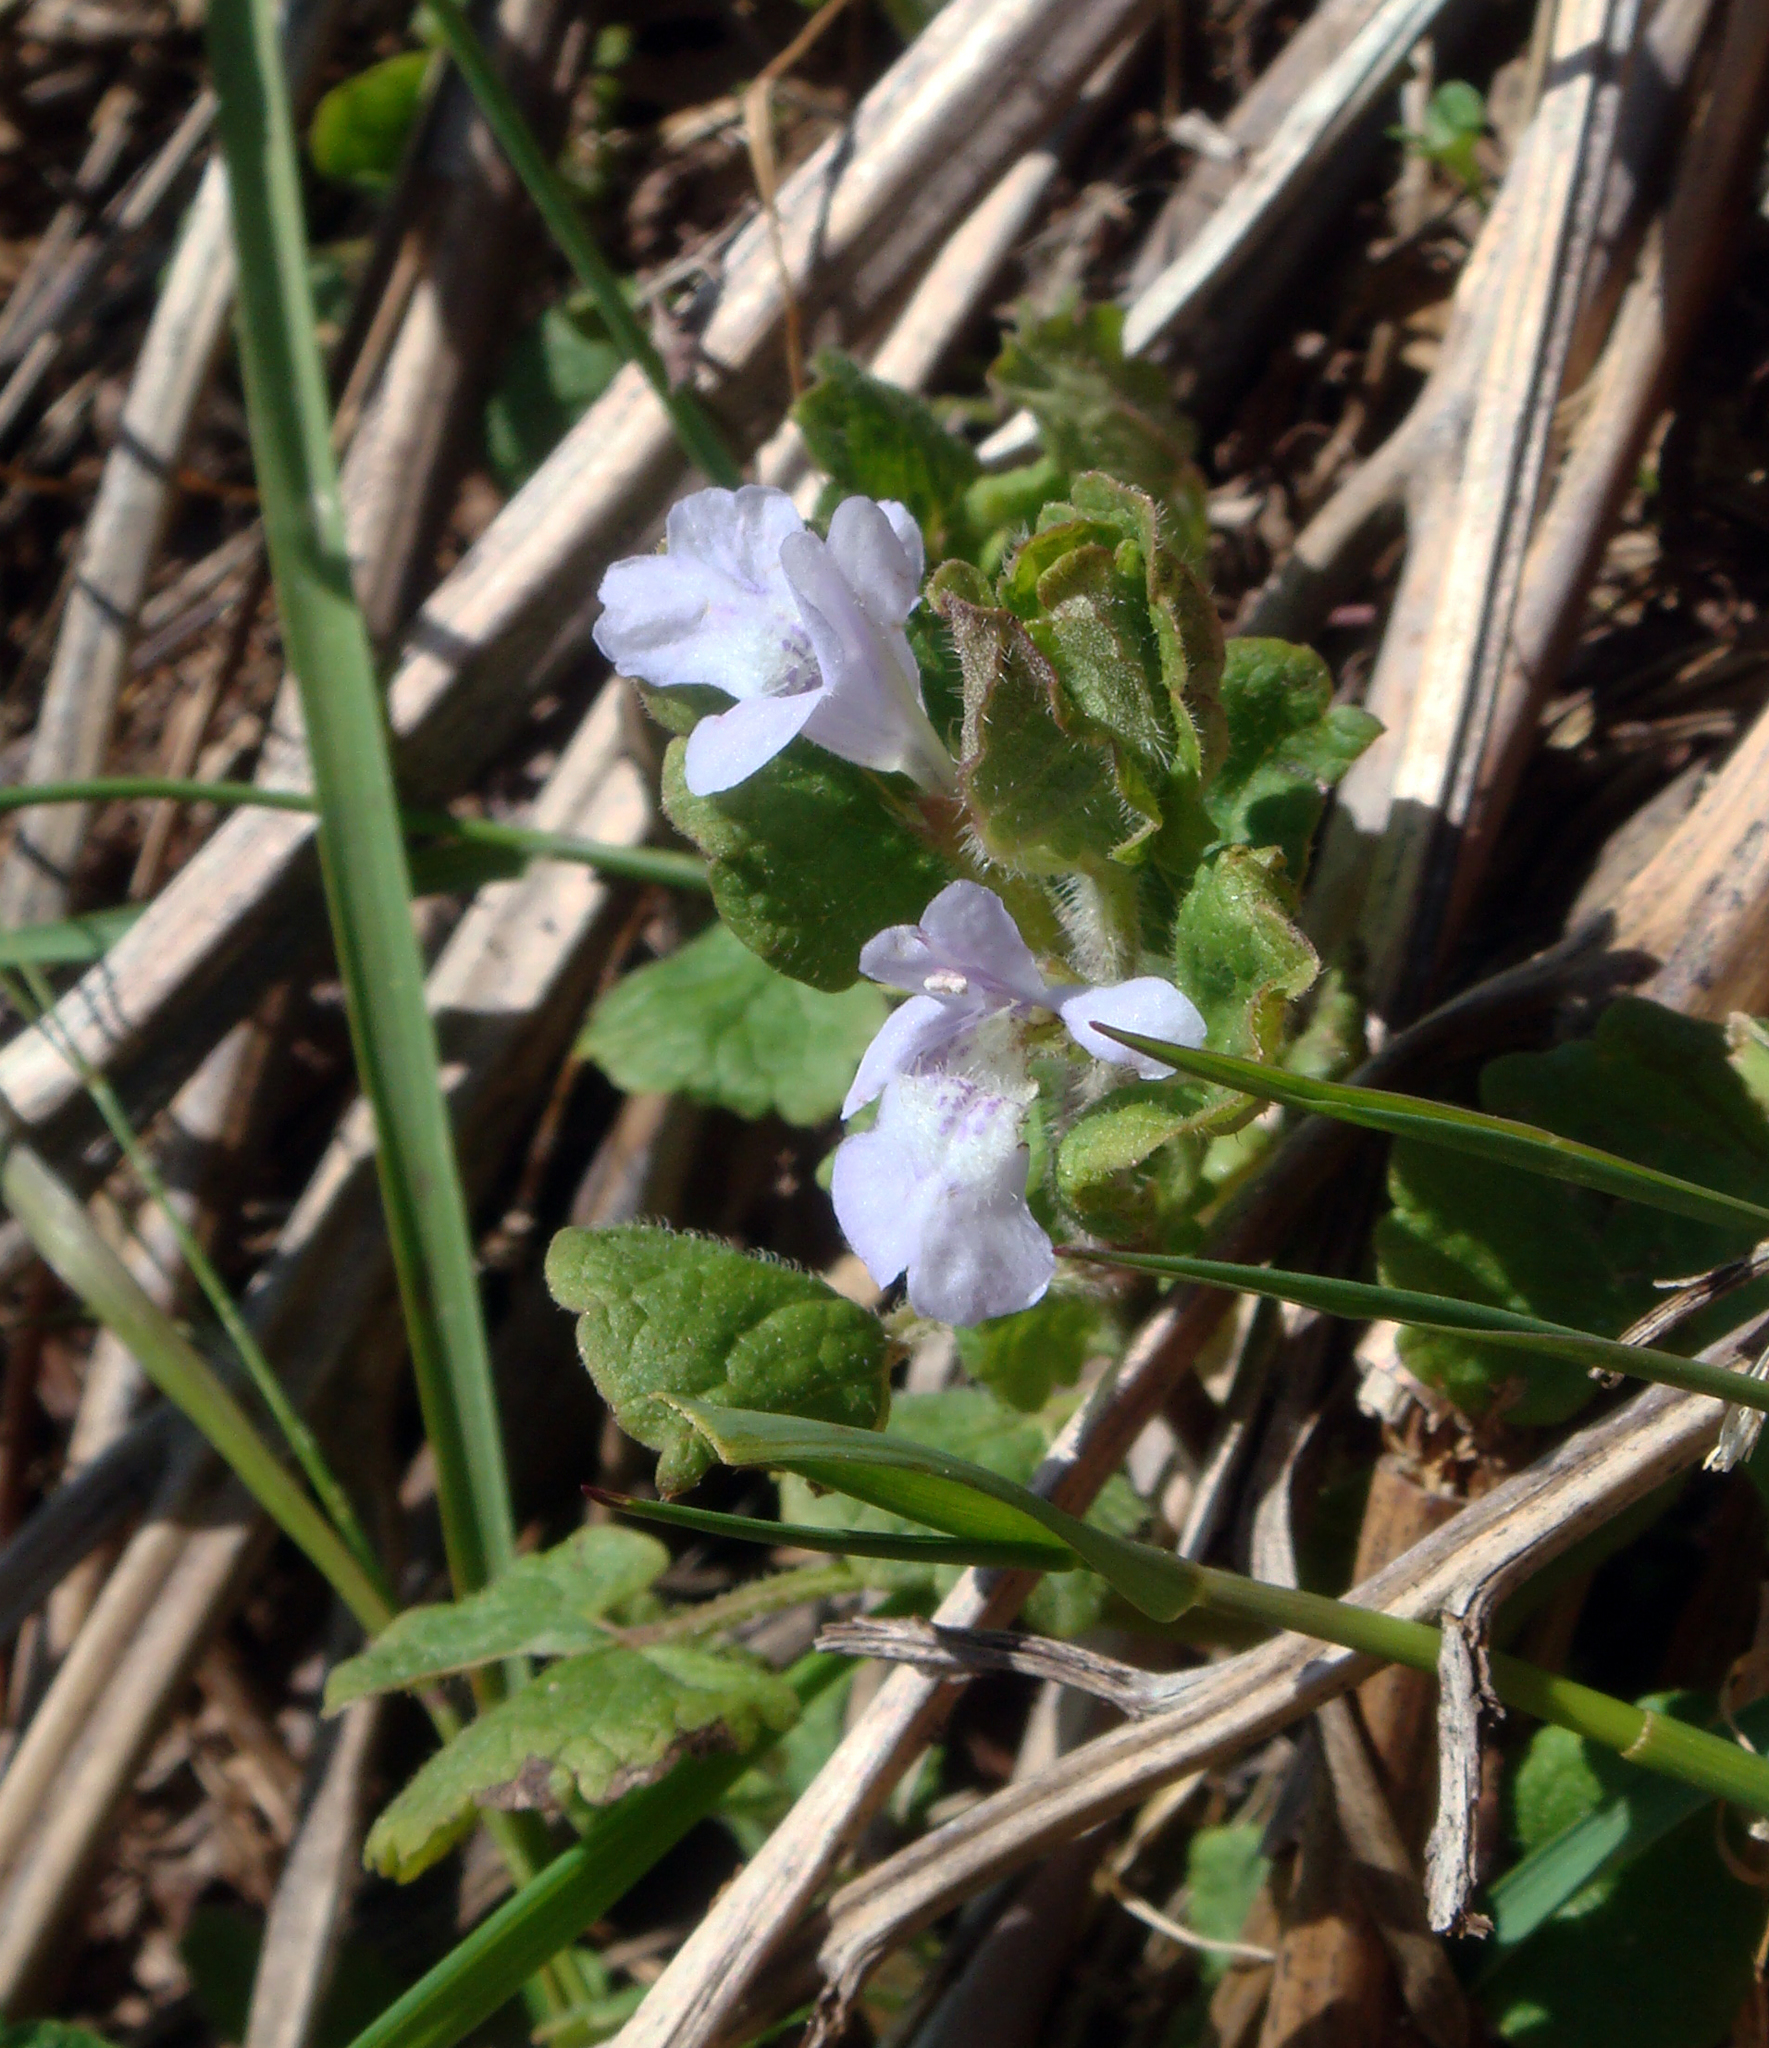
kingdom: Plantae
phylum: Tracheophyta
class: Magnoliopsida
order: Lamiales
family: Lamiaceae
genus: Glechoma
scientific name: Glechoma sardoa
